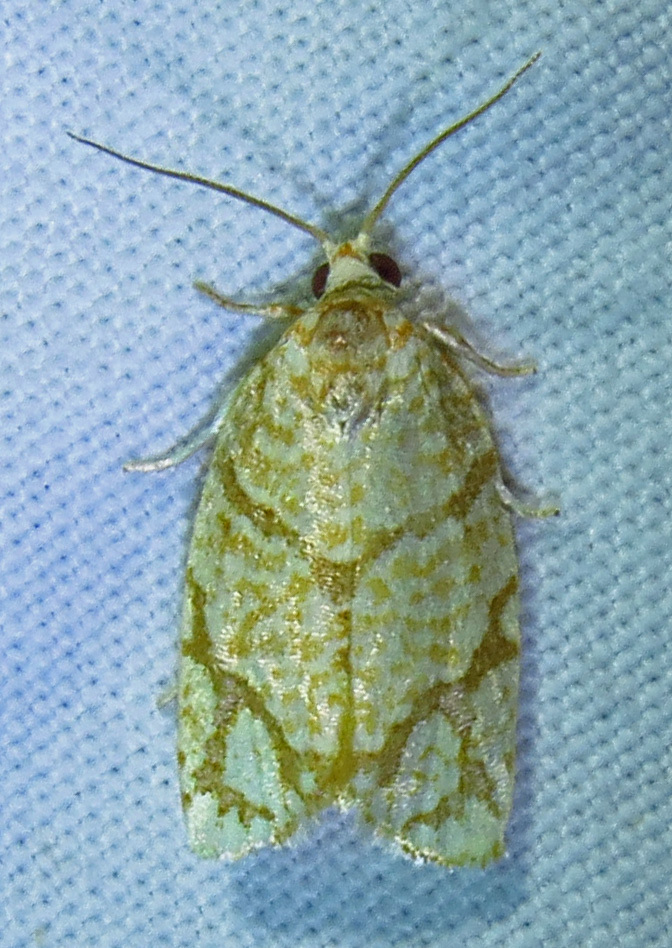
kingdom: Animalia
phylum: Arthropoda
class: Insecta
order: Lepidoptera
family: Tortricidae
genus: Argyrotaenia
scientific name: Argyrotaenia quercifoliana
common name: Yellow-winged oak leafroller moth
